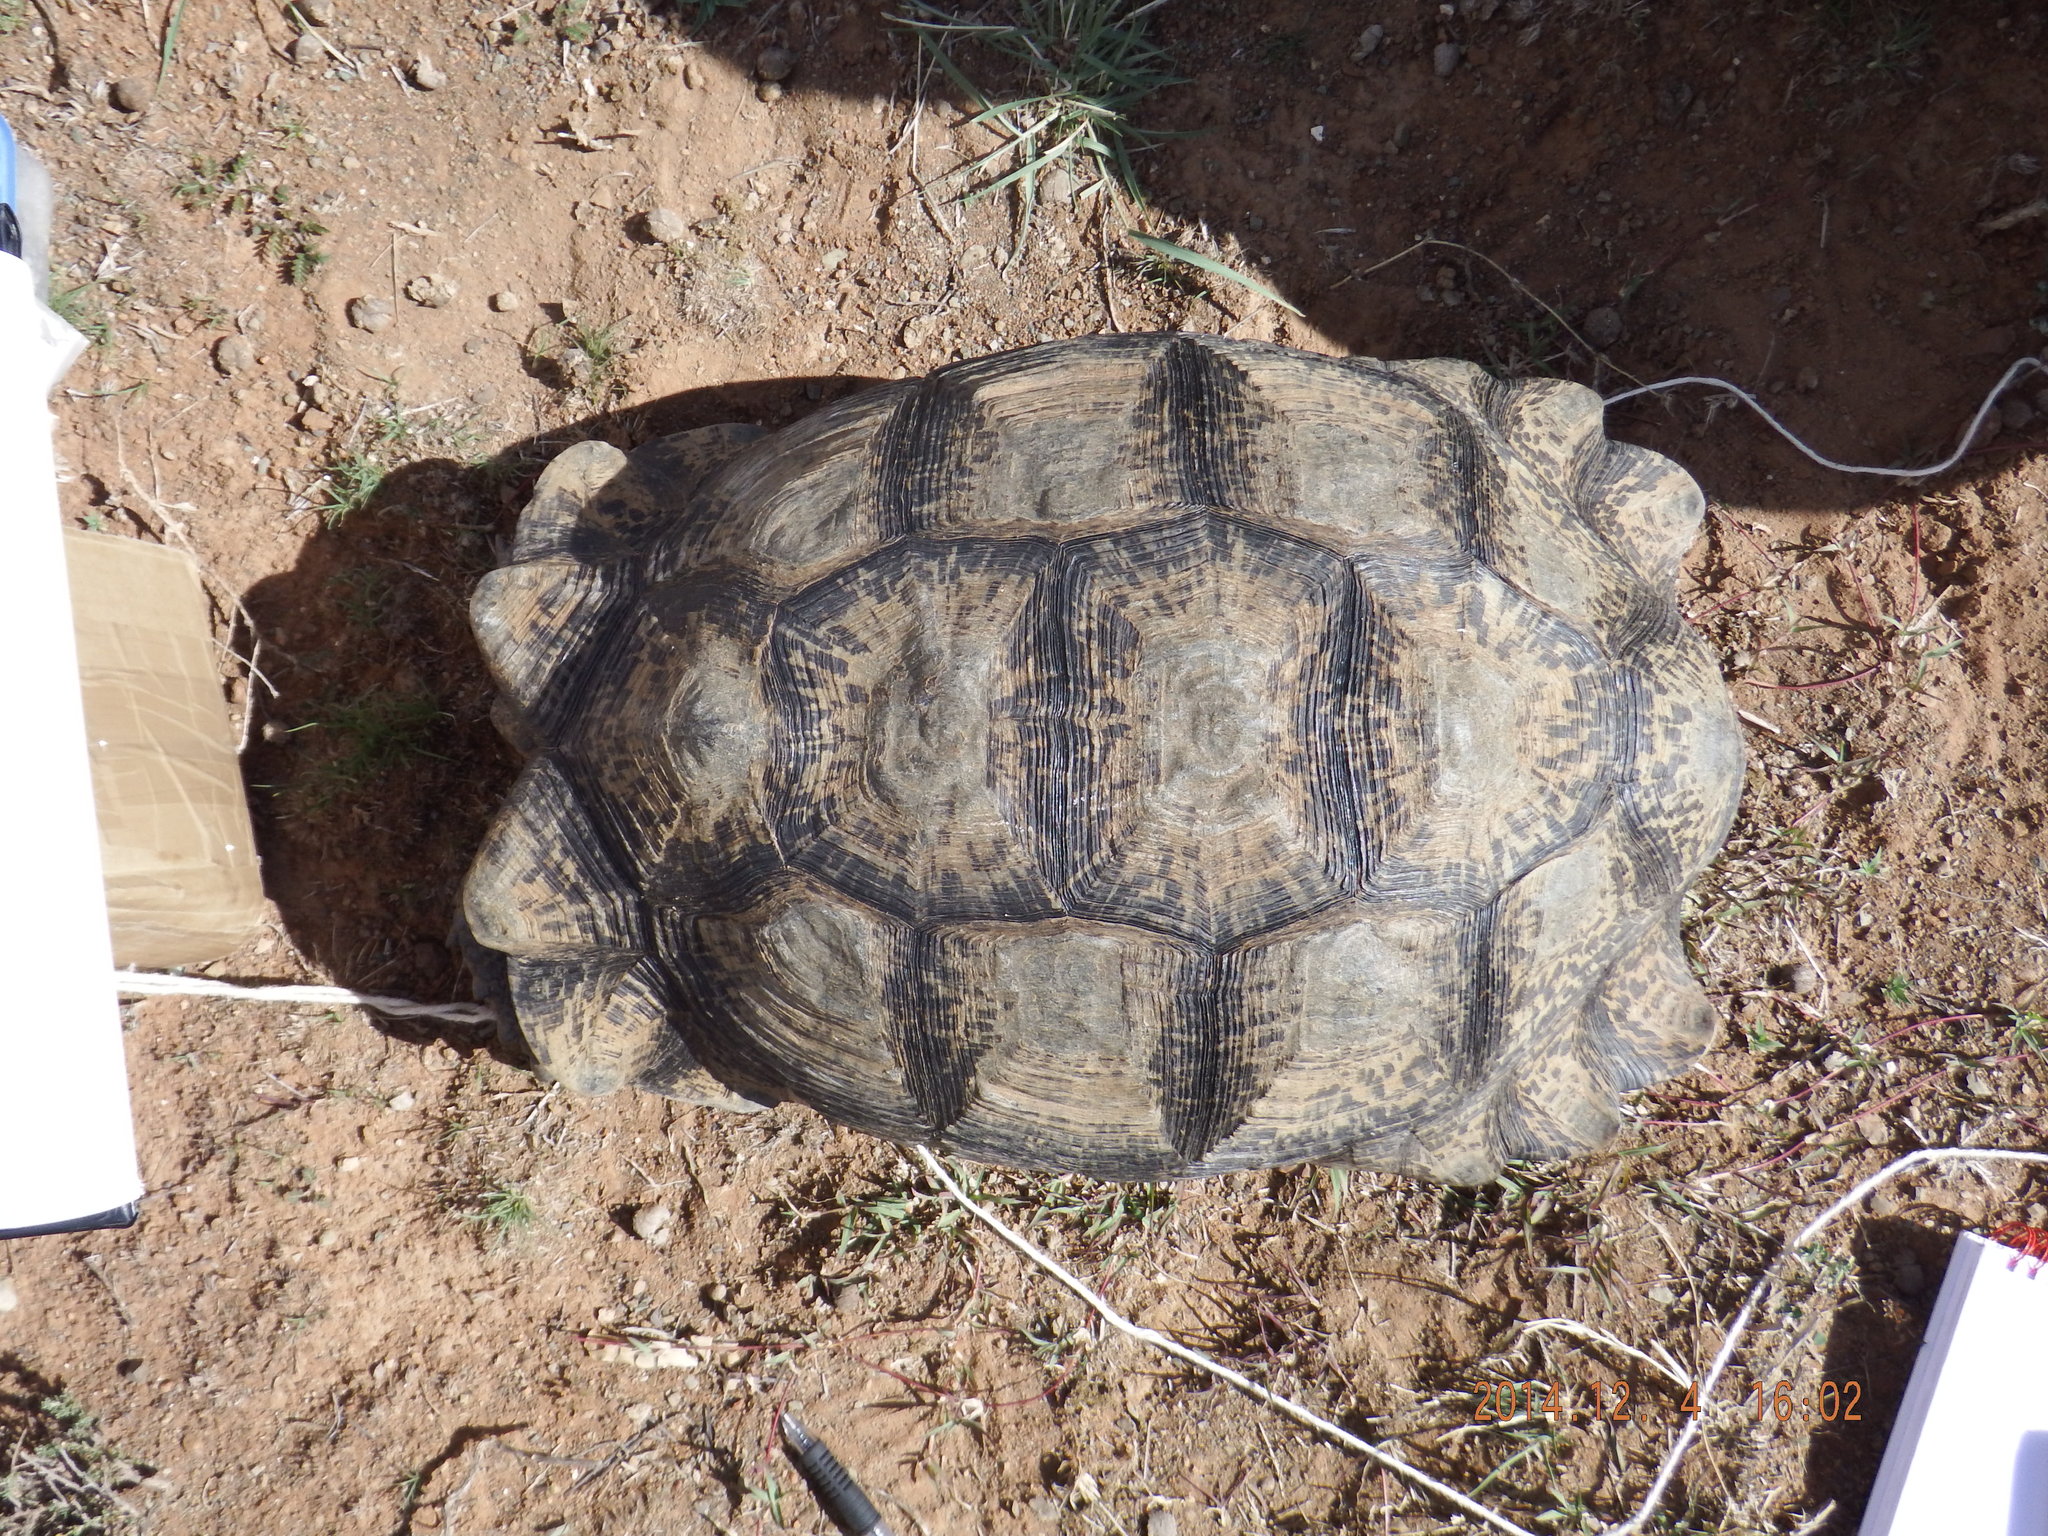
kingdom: Animalia
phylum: Chordata
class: Testudines
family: Testudinidae
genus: Stigmochelys
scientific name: Stigmochelys pardalis
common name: Leopard tortoise
